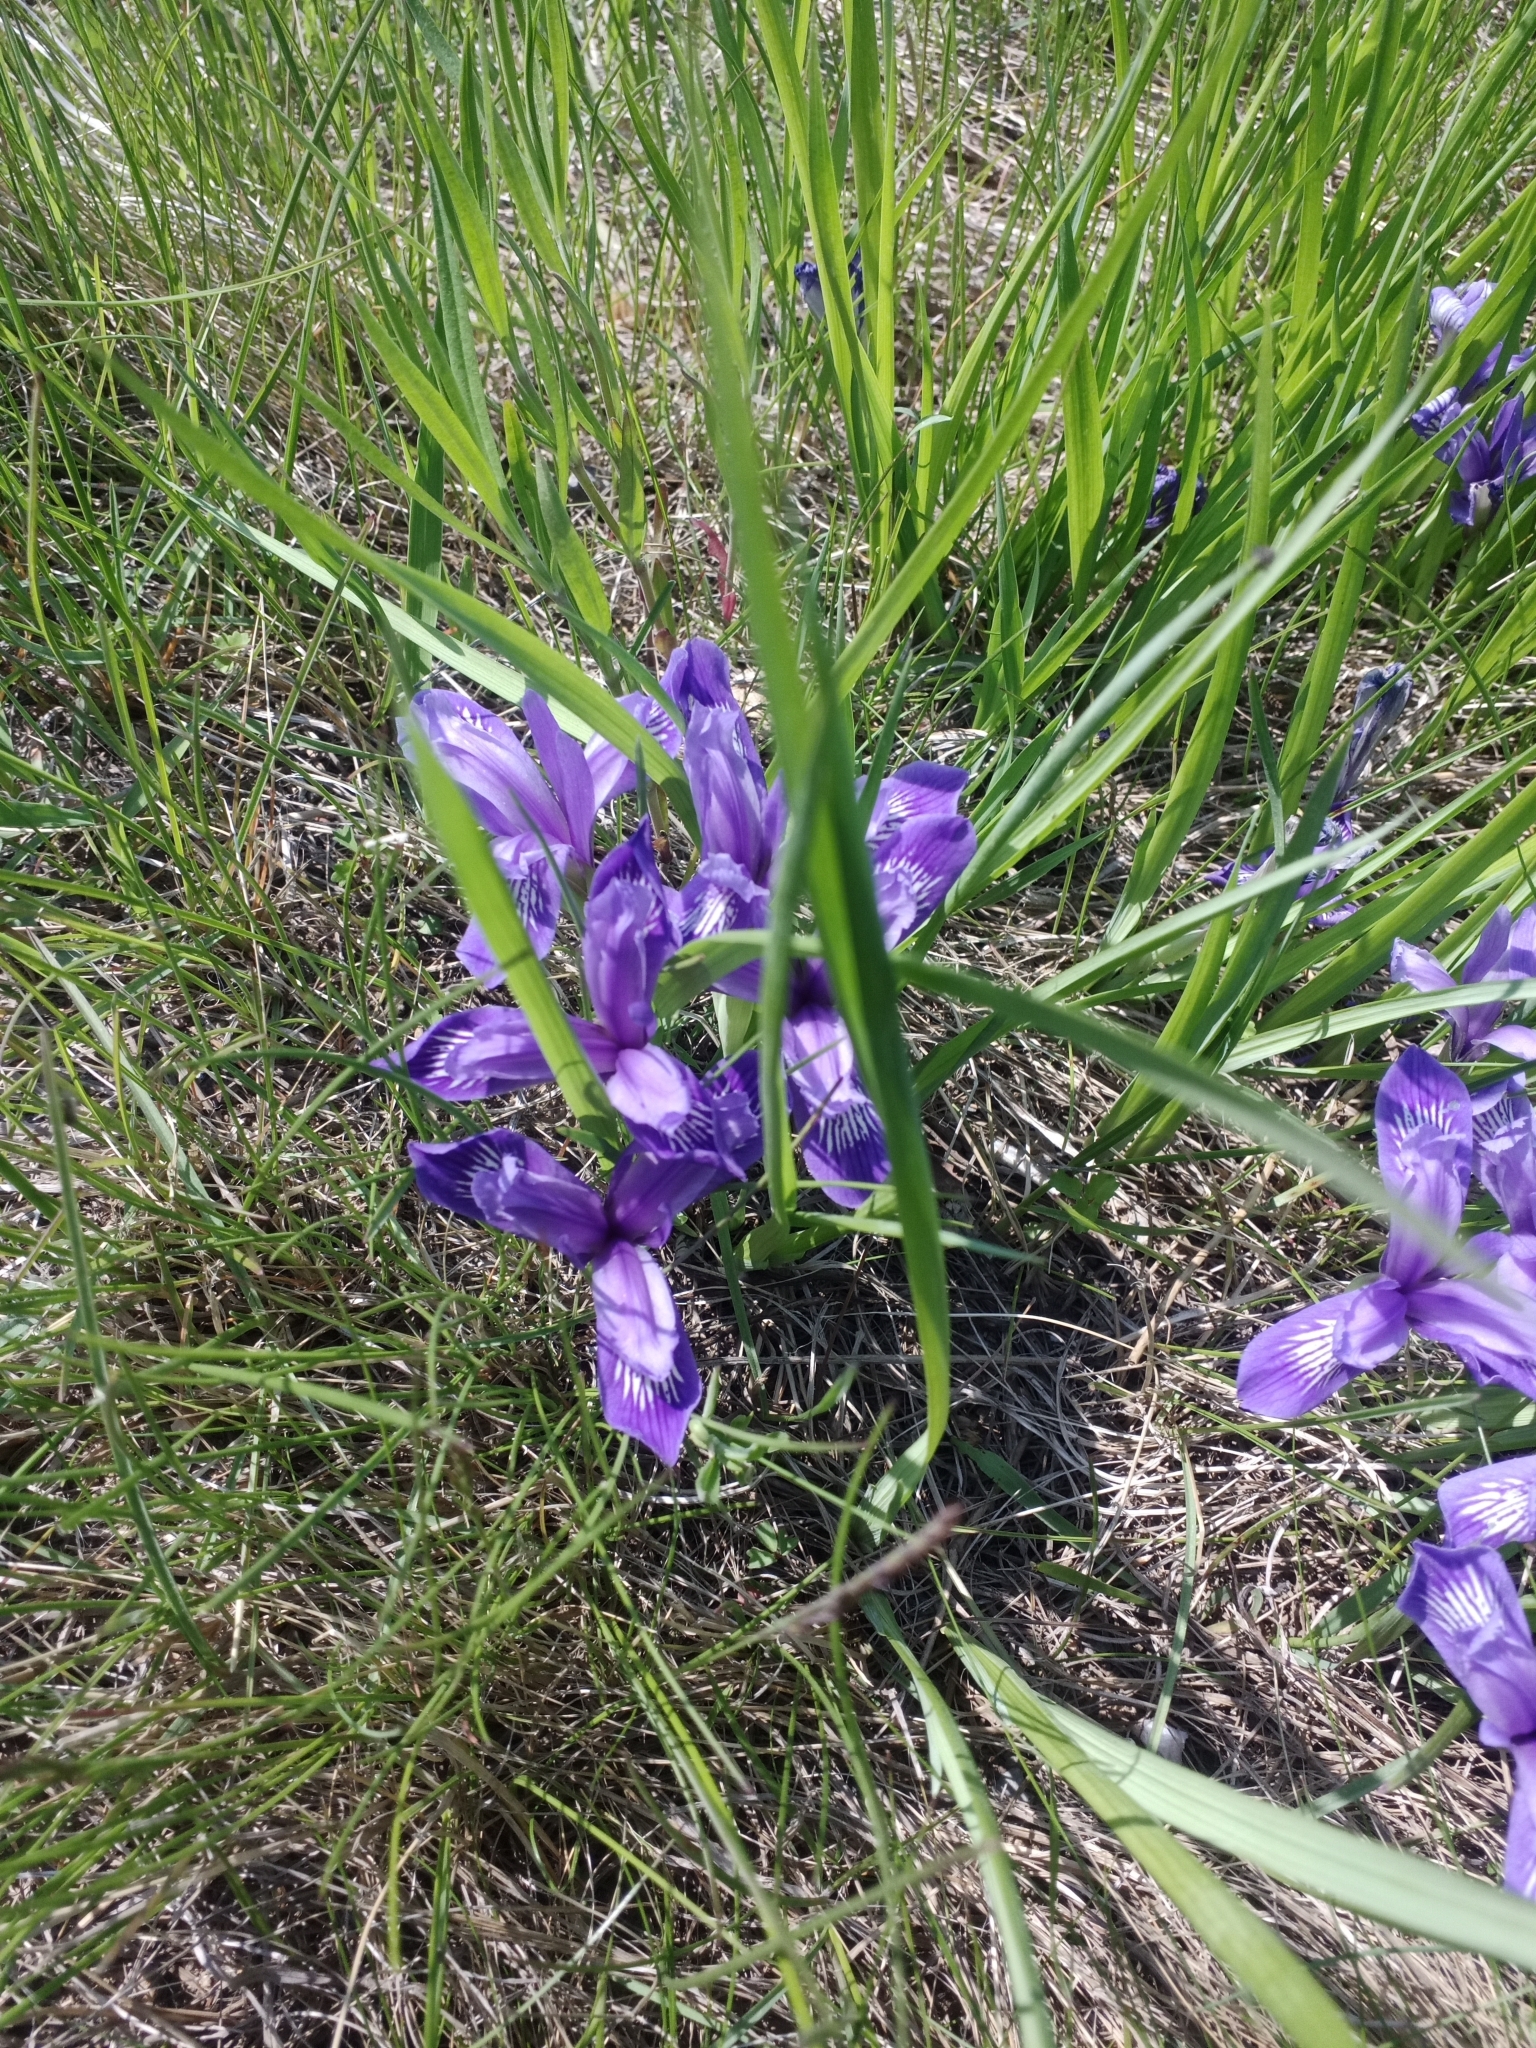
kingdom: Plantae
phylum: Tracheophyta
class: Liliopsida
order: Asparagales
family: Iridaceae
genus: Iris
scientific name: Iris ruthenica
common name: Purple-bract iris
